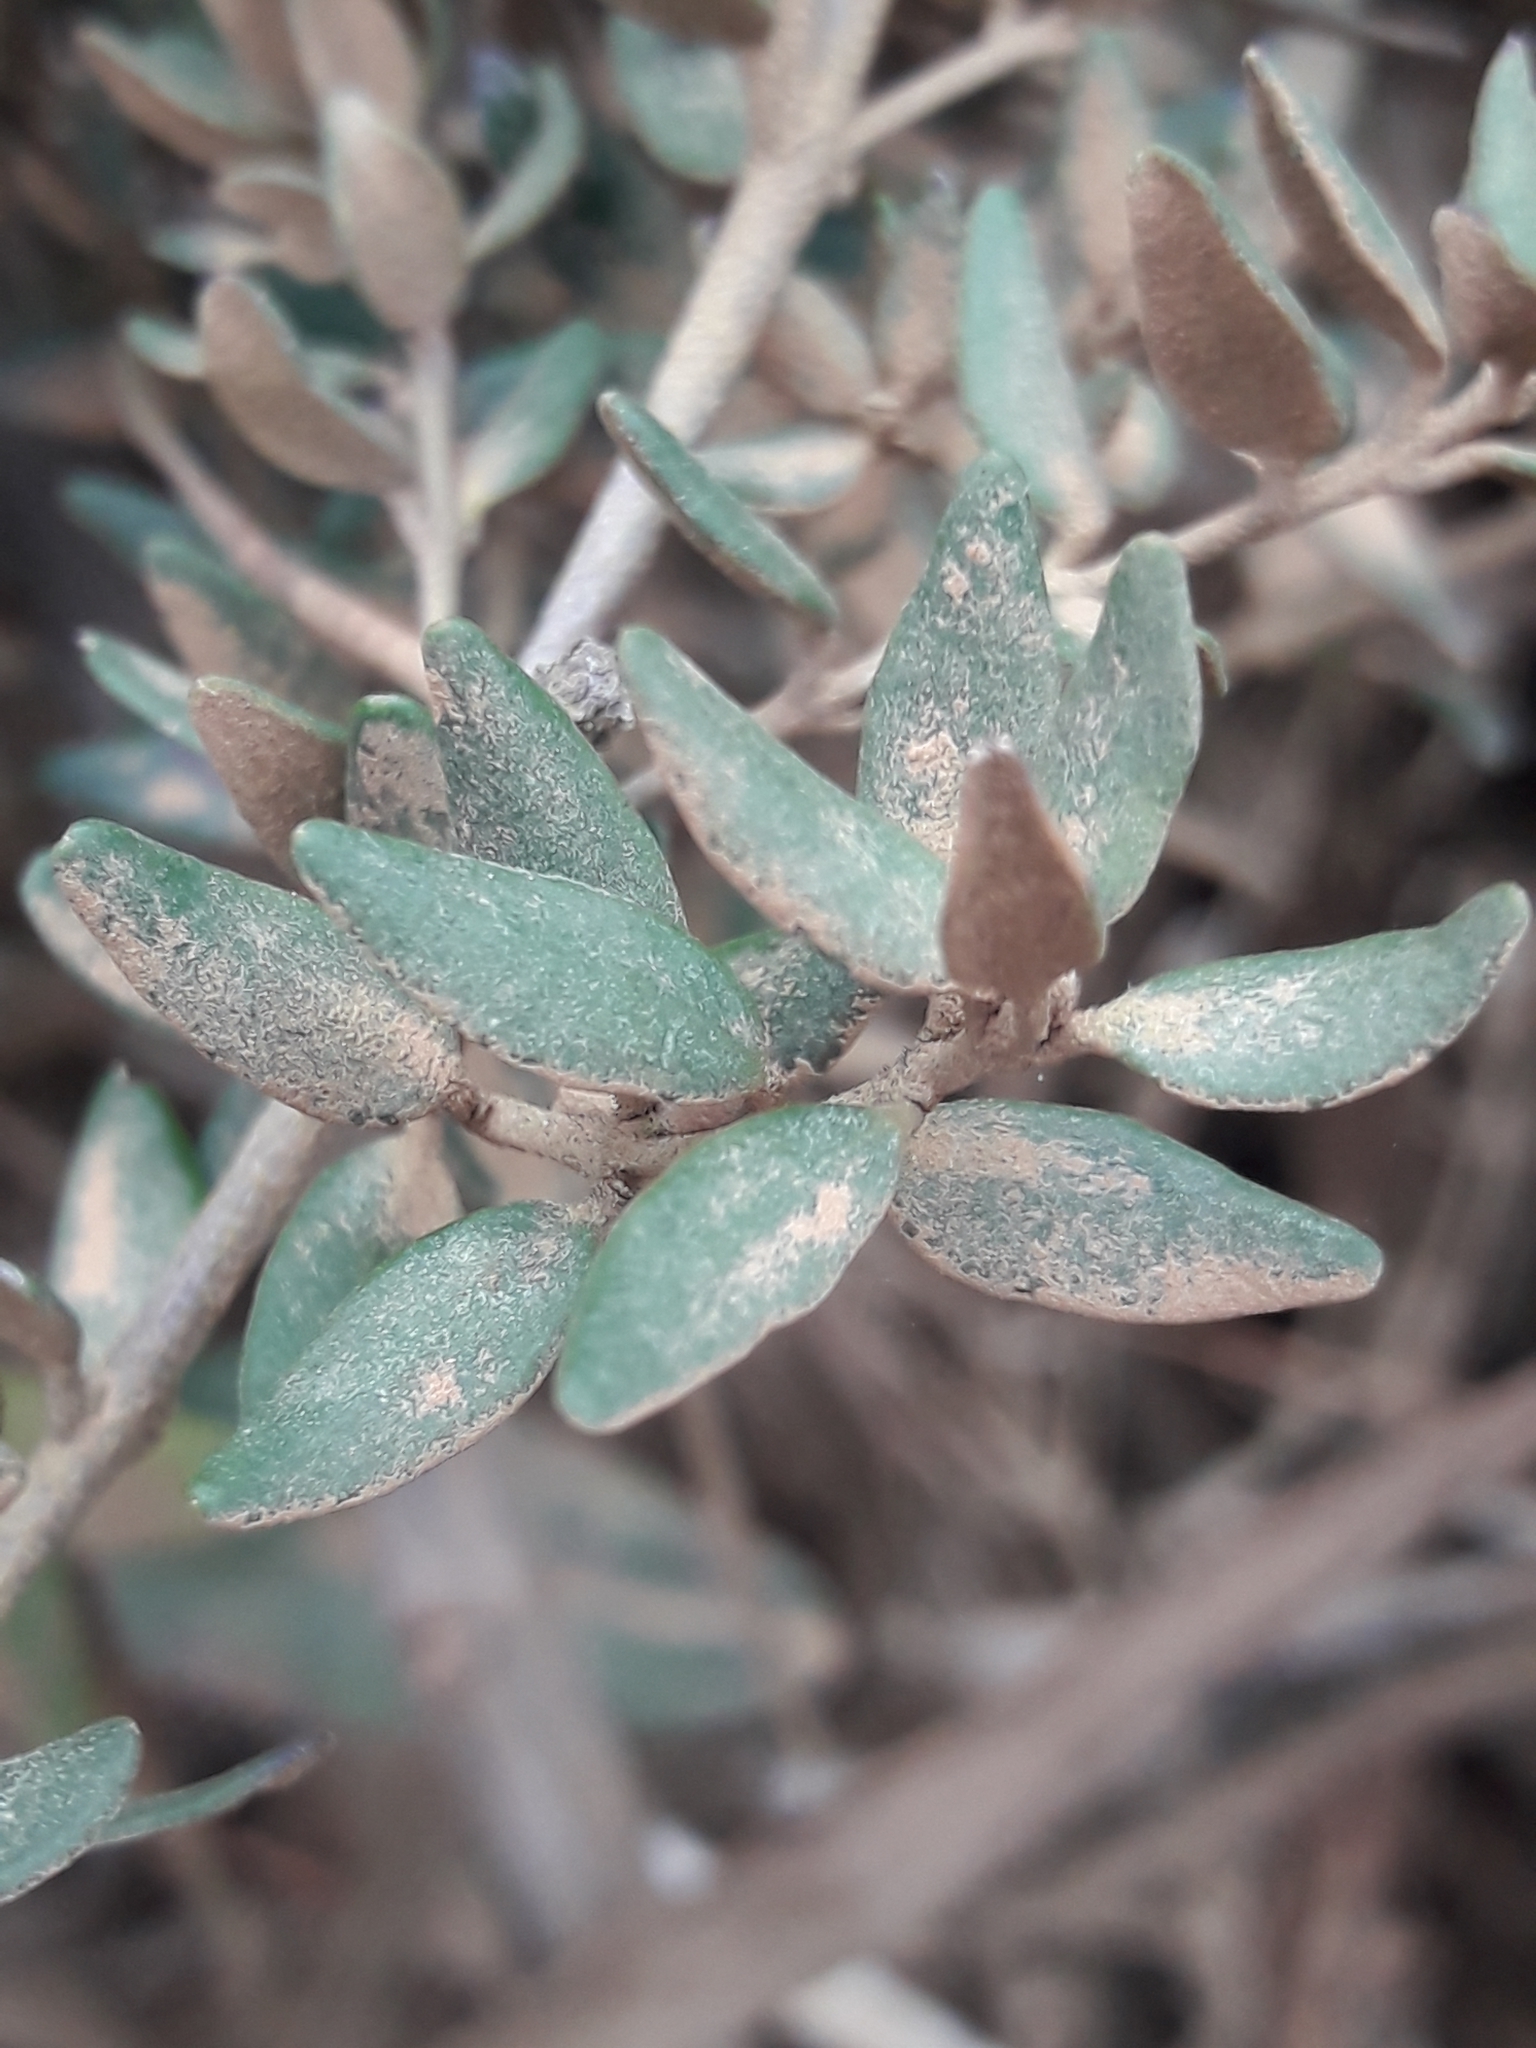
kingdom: Plantae
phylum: Tracheophyta
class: Magnoliopsida
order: Myrtales
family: Myrtaceae
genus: Myrceugenia
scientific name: Myrceugenia rufa
